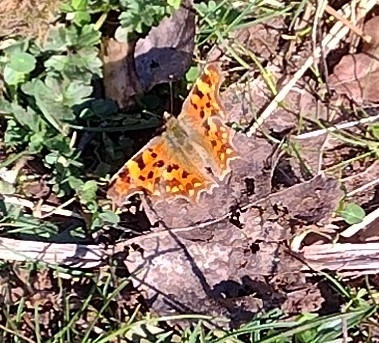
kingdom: Animalia
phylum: Arthropoda
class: Insecta
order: Lepidoptera
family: Nymphalidae
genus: Polygonia
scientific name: Polygonia c-album
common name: Comma
